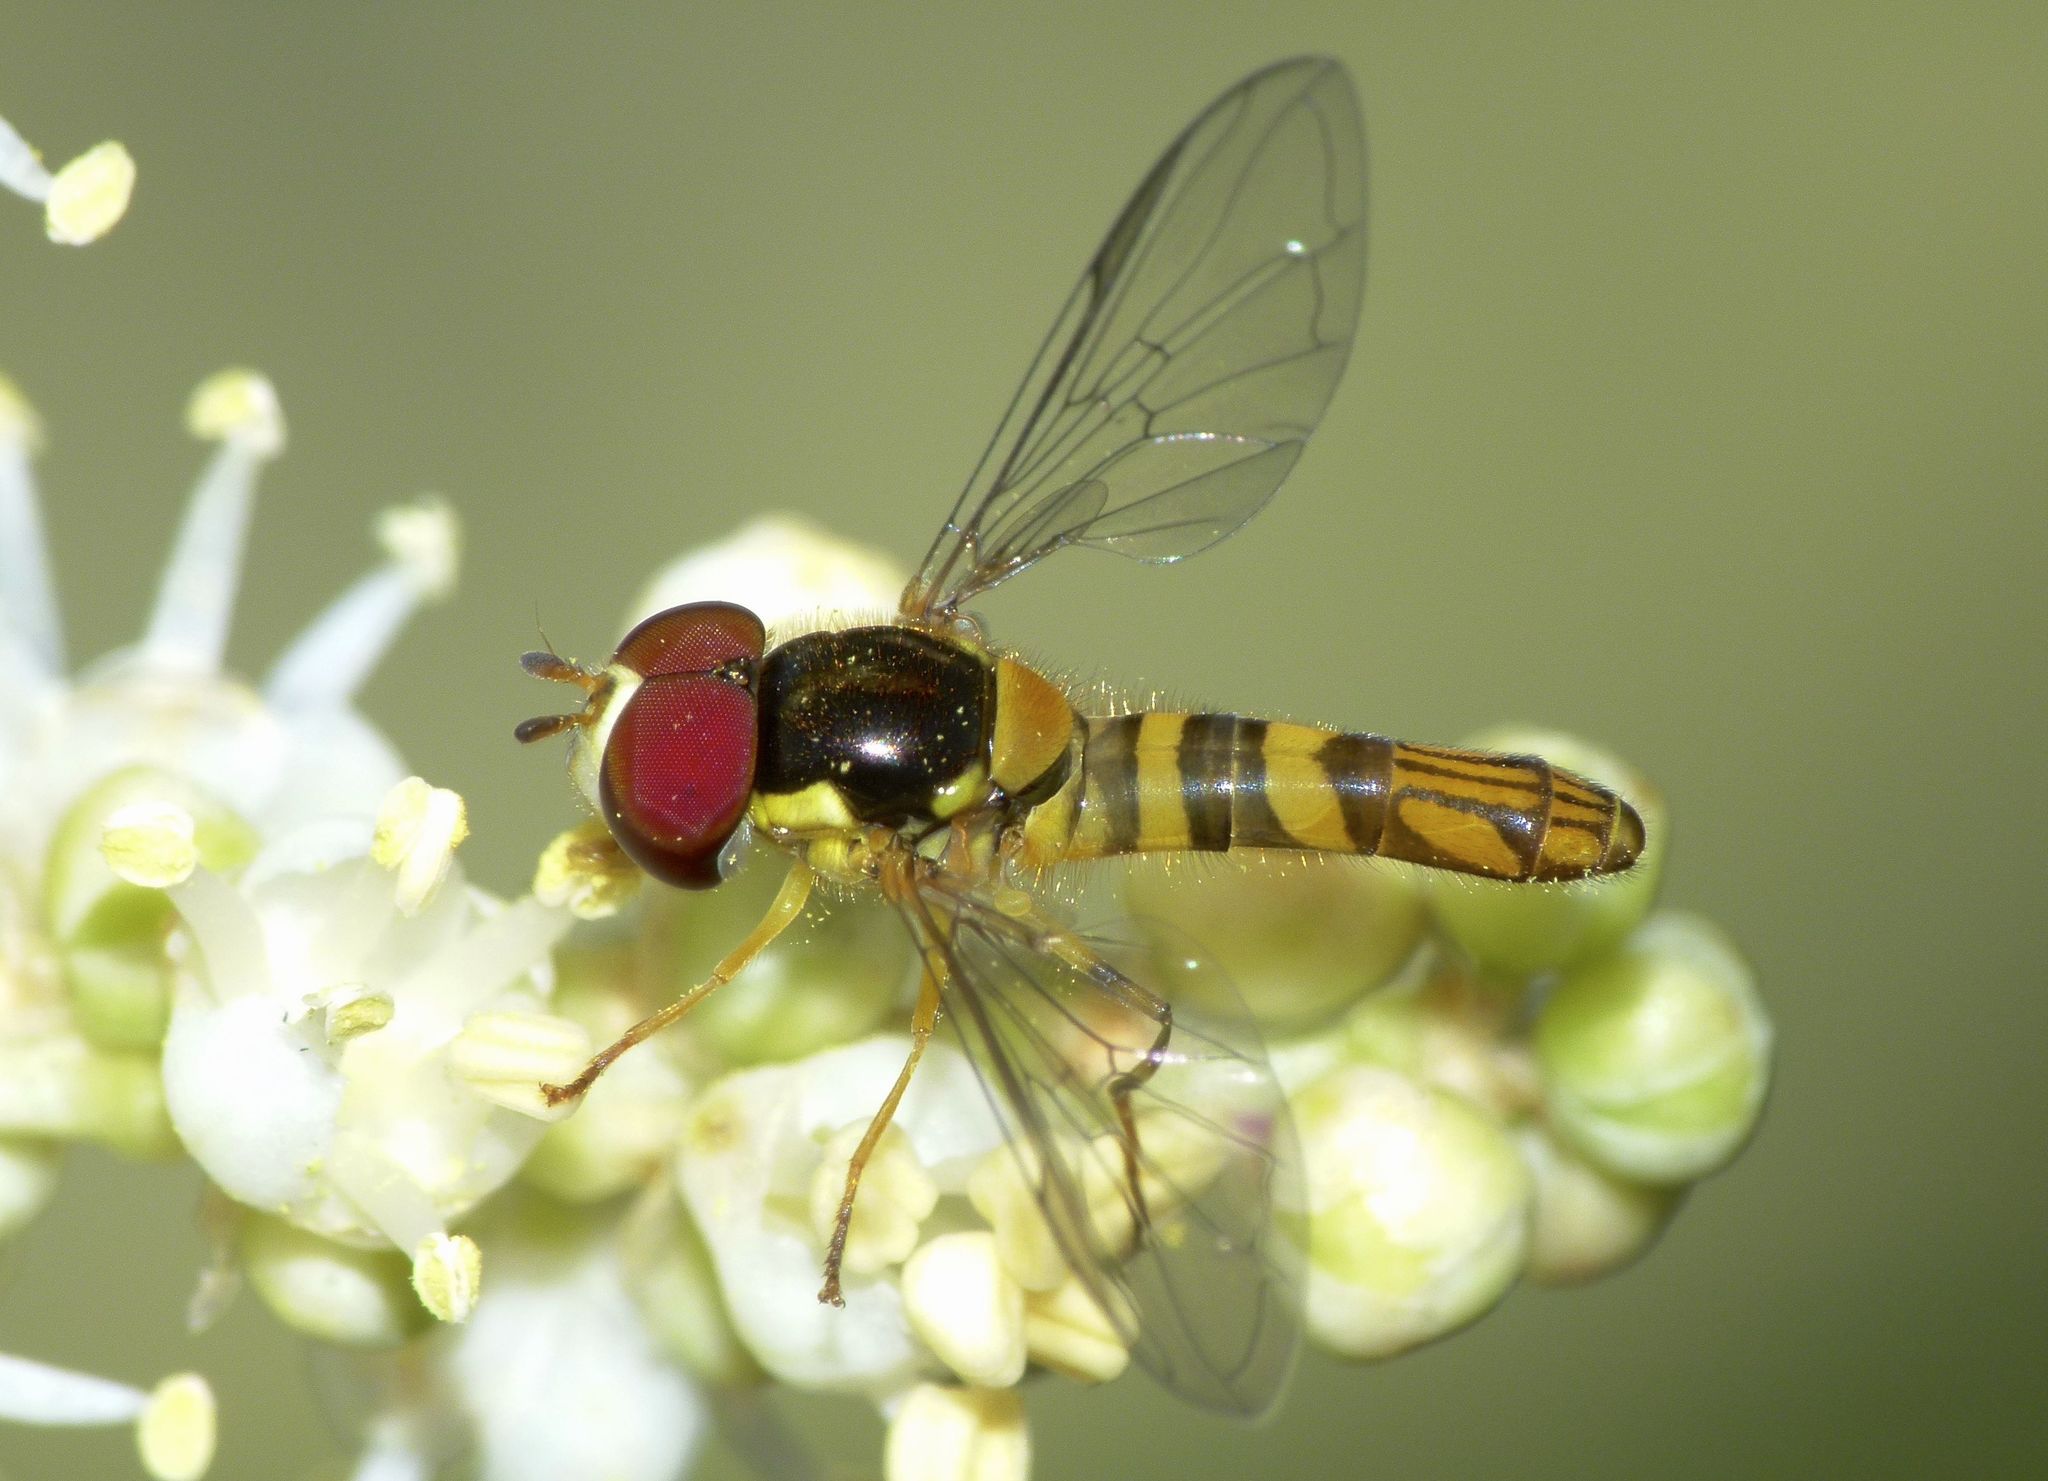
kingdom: Animalia
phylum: Arthropoda
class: Insecta
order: Diptera
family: Syrphidae
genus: Allograpta
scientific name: Allograpta obliqua
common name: Common oblique syrphid
